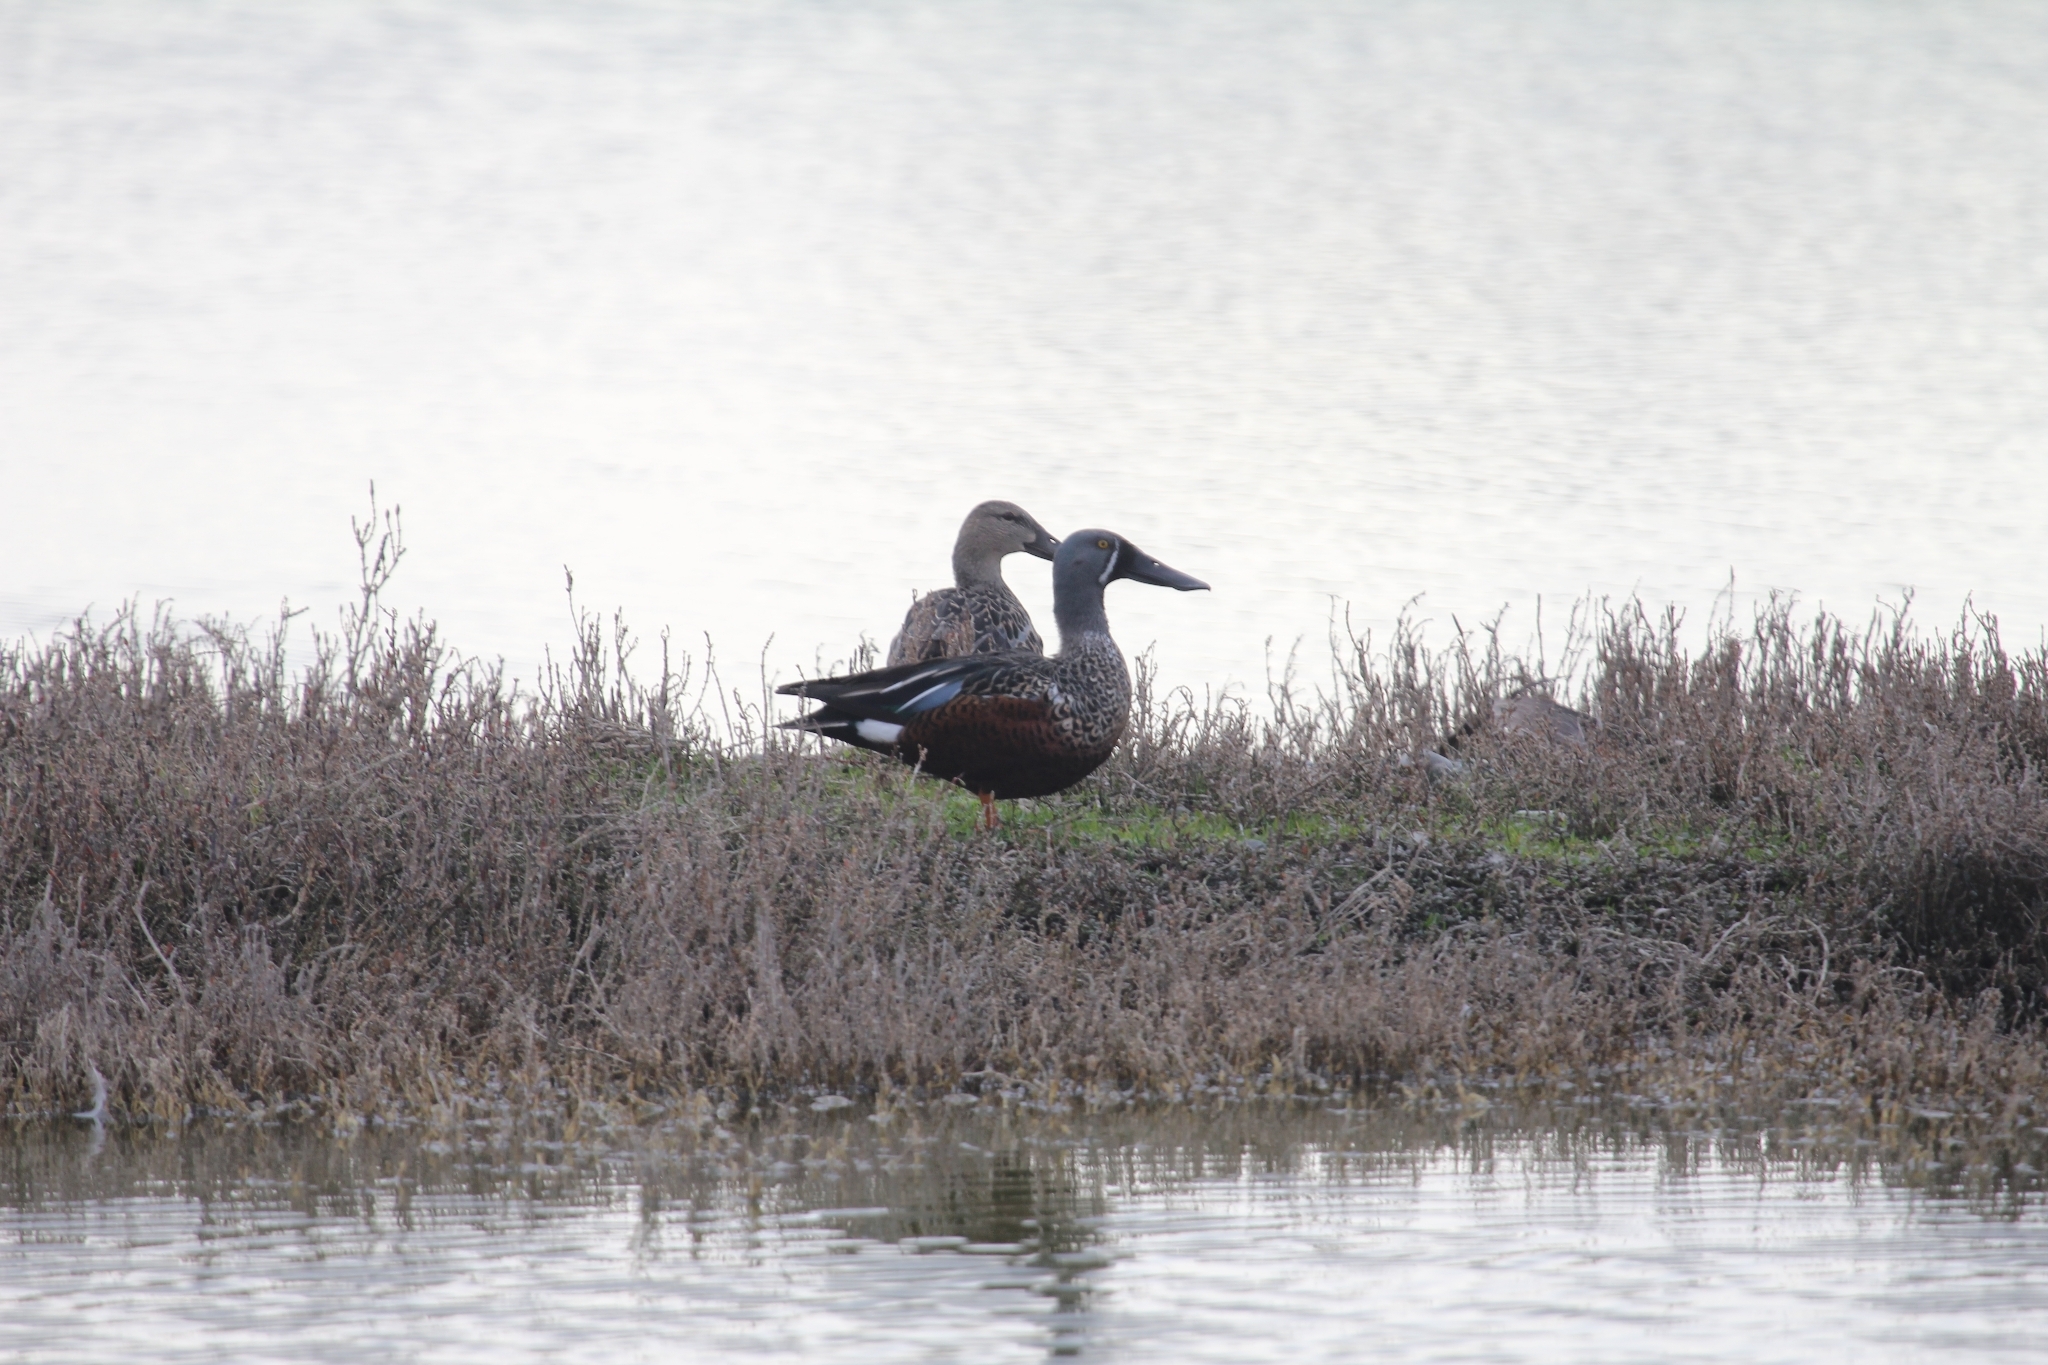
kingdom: Animalia
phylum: Chordata
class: Aves
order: Anseriformes
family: Anatidae
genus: Spatula
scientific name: Spatula rhynchotis
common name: Australian shoveler
